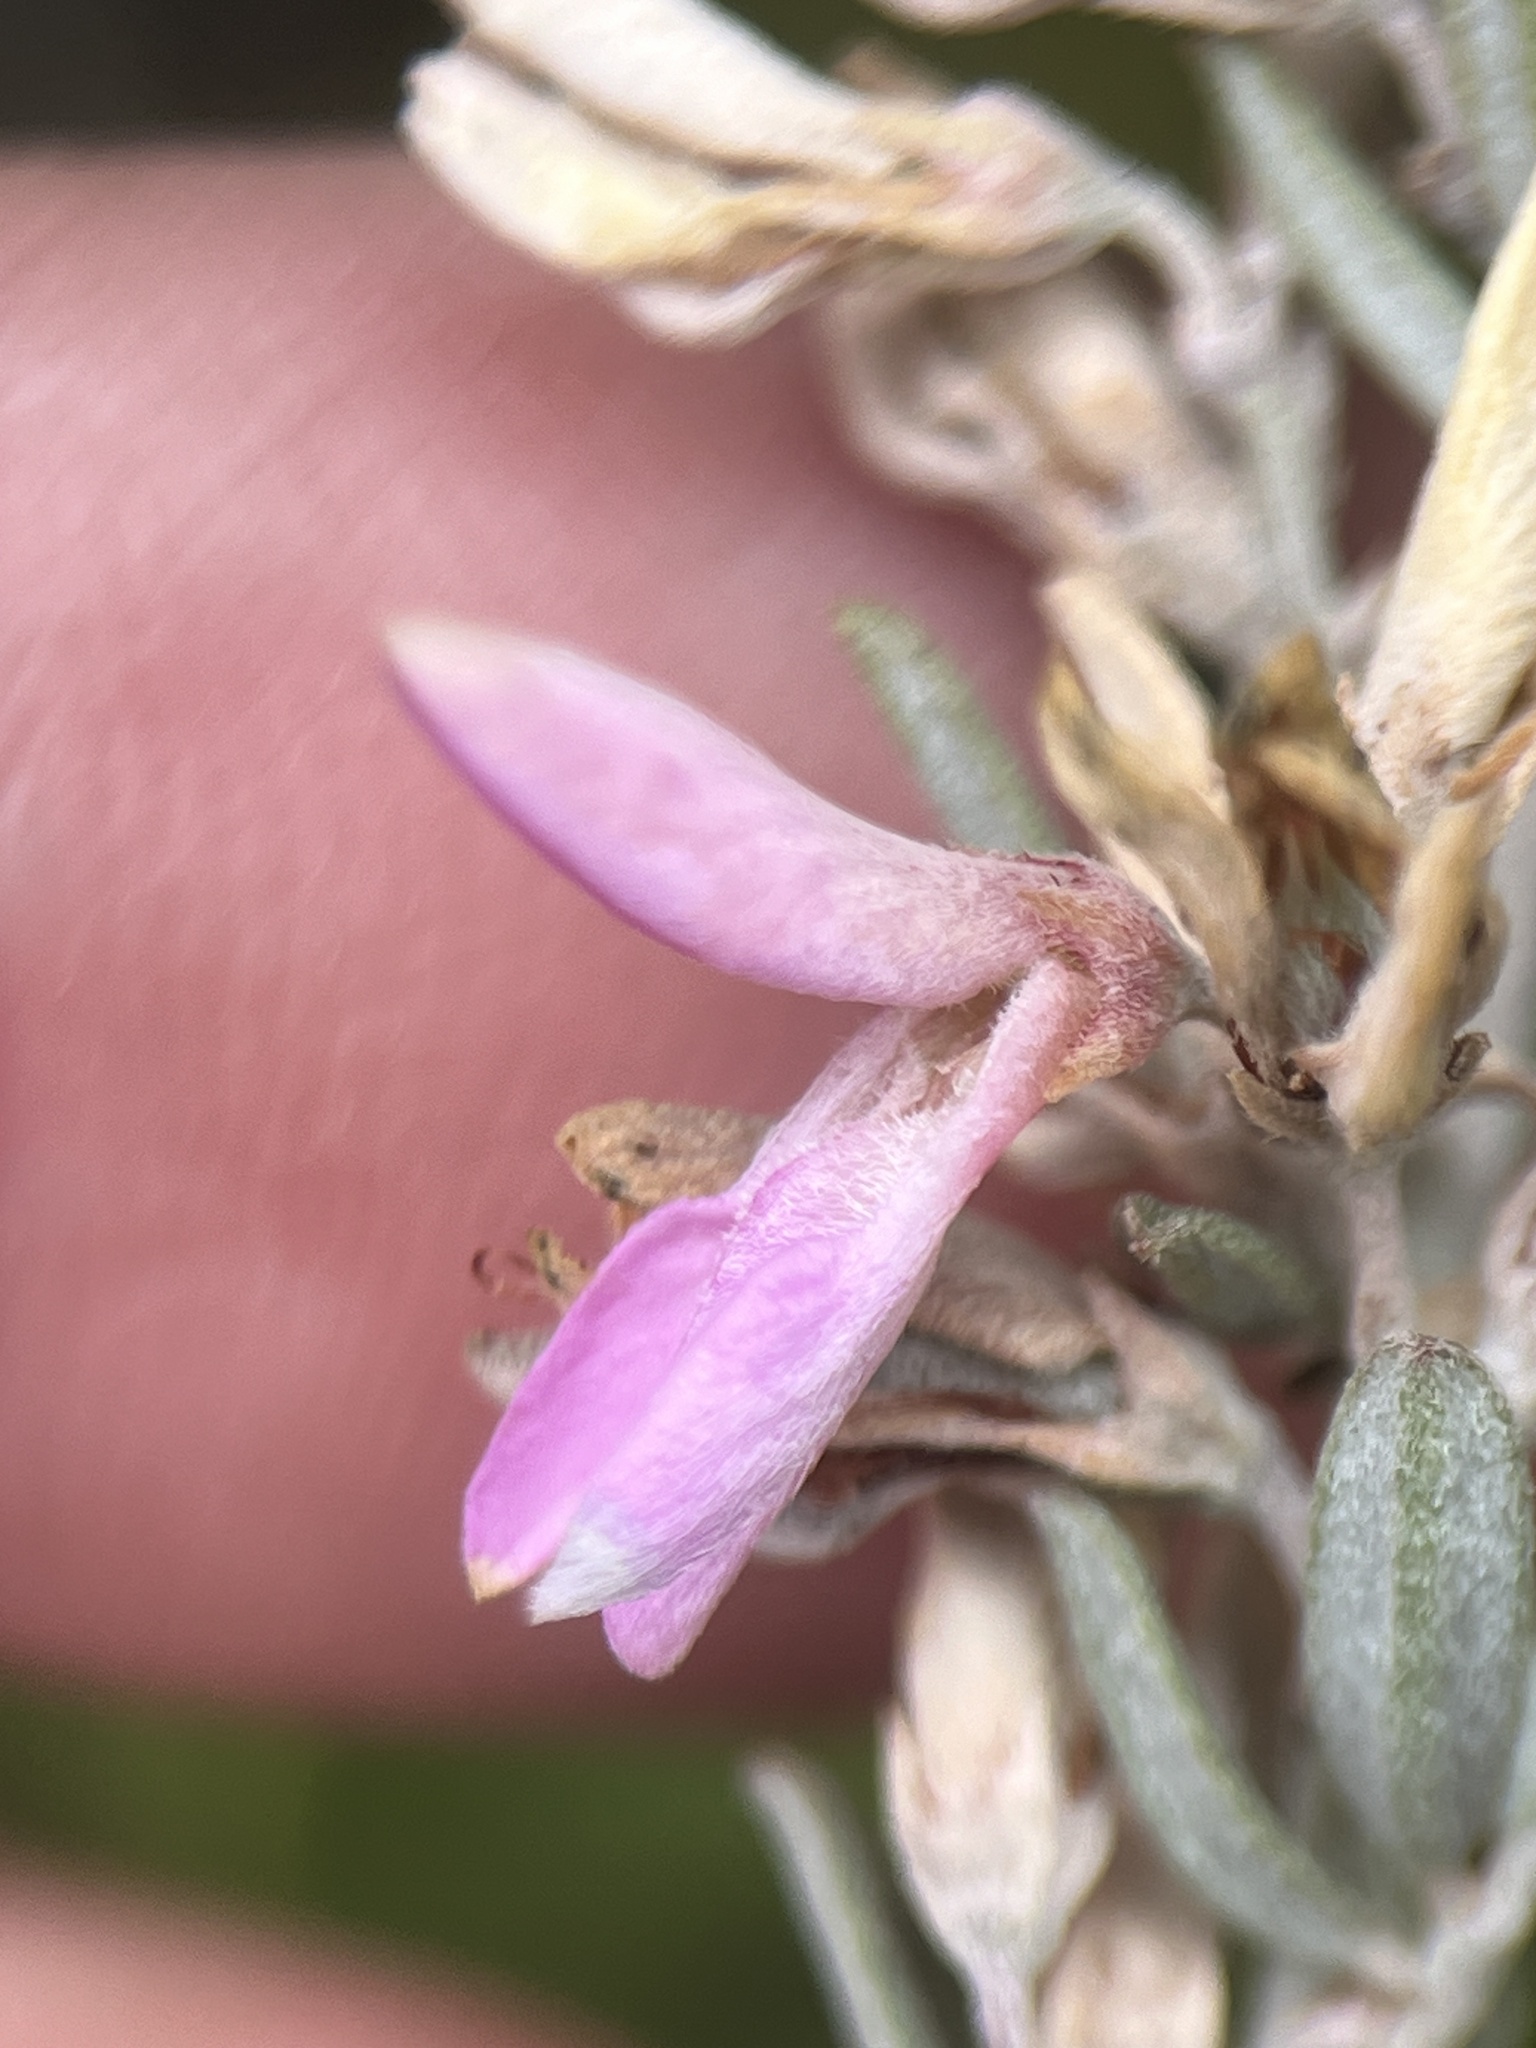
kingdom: Plantae
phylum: Tracheophyta
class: Magnoliopsida
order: Fabales
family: Fabaceae
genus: Indigofera
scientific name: Indigofera brachystachya
